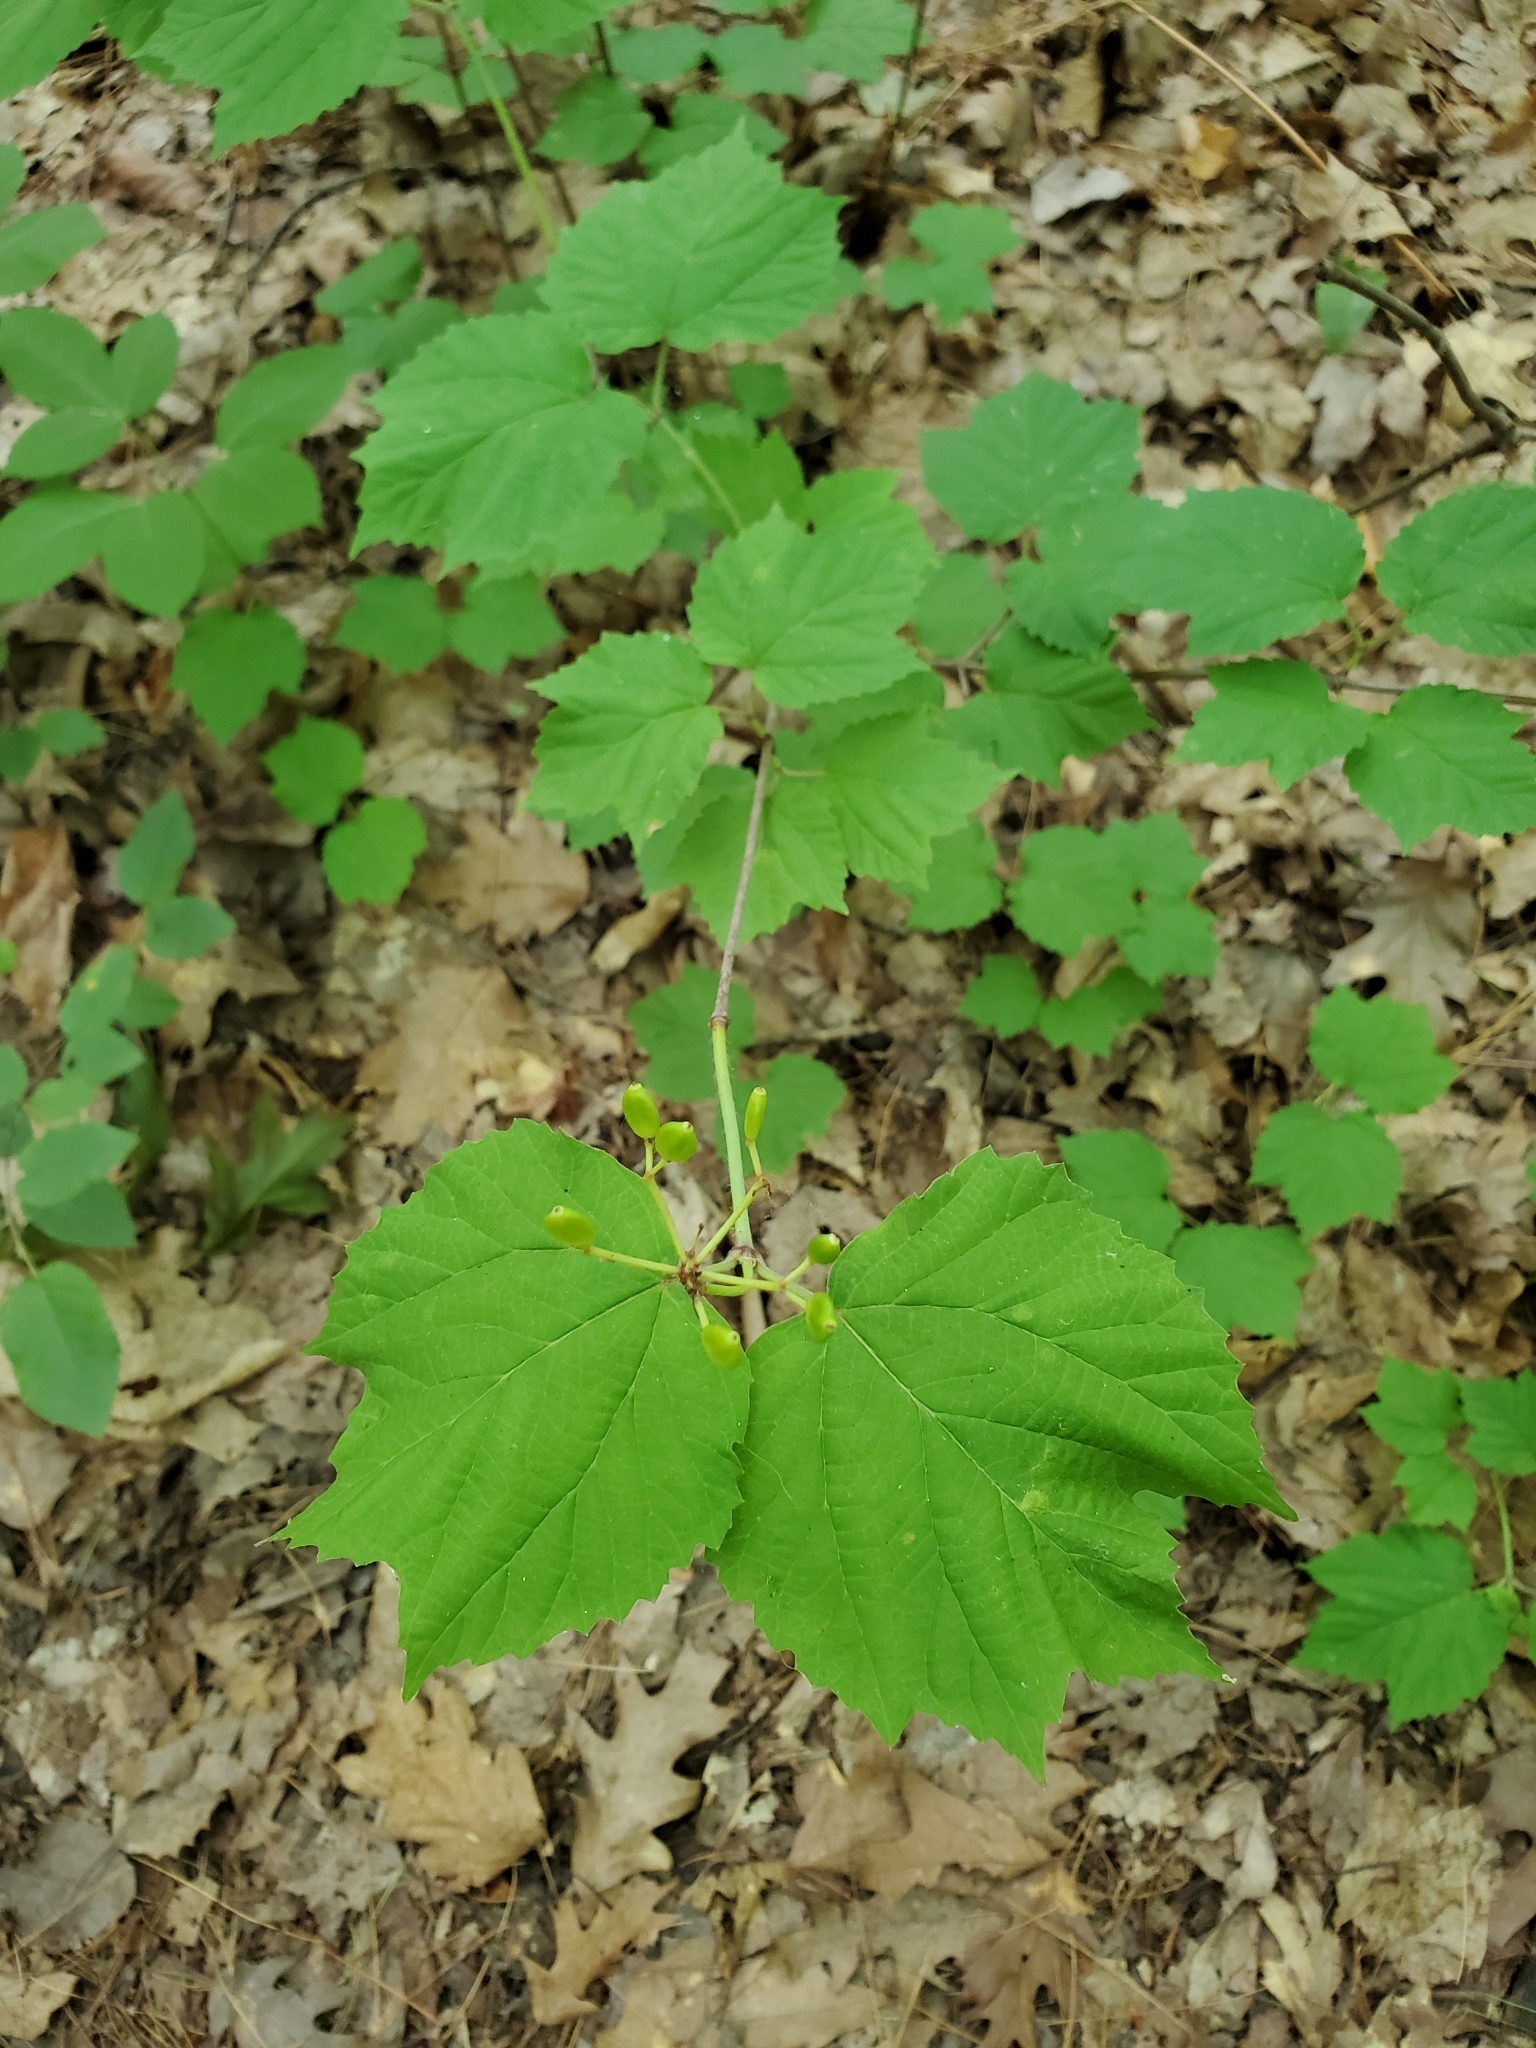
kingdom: Plantae
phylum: Tracheophyta
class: Magnoliopsida
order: Dipsacales
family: Viburnaceae
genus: Viburnum
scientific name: Viburnum acerifolium
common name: Dockmackie
